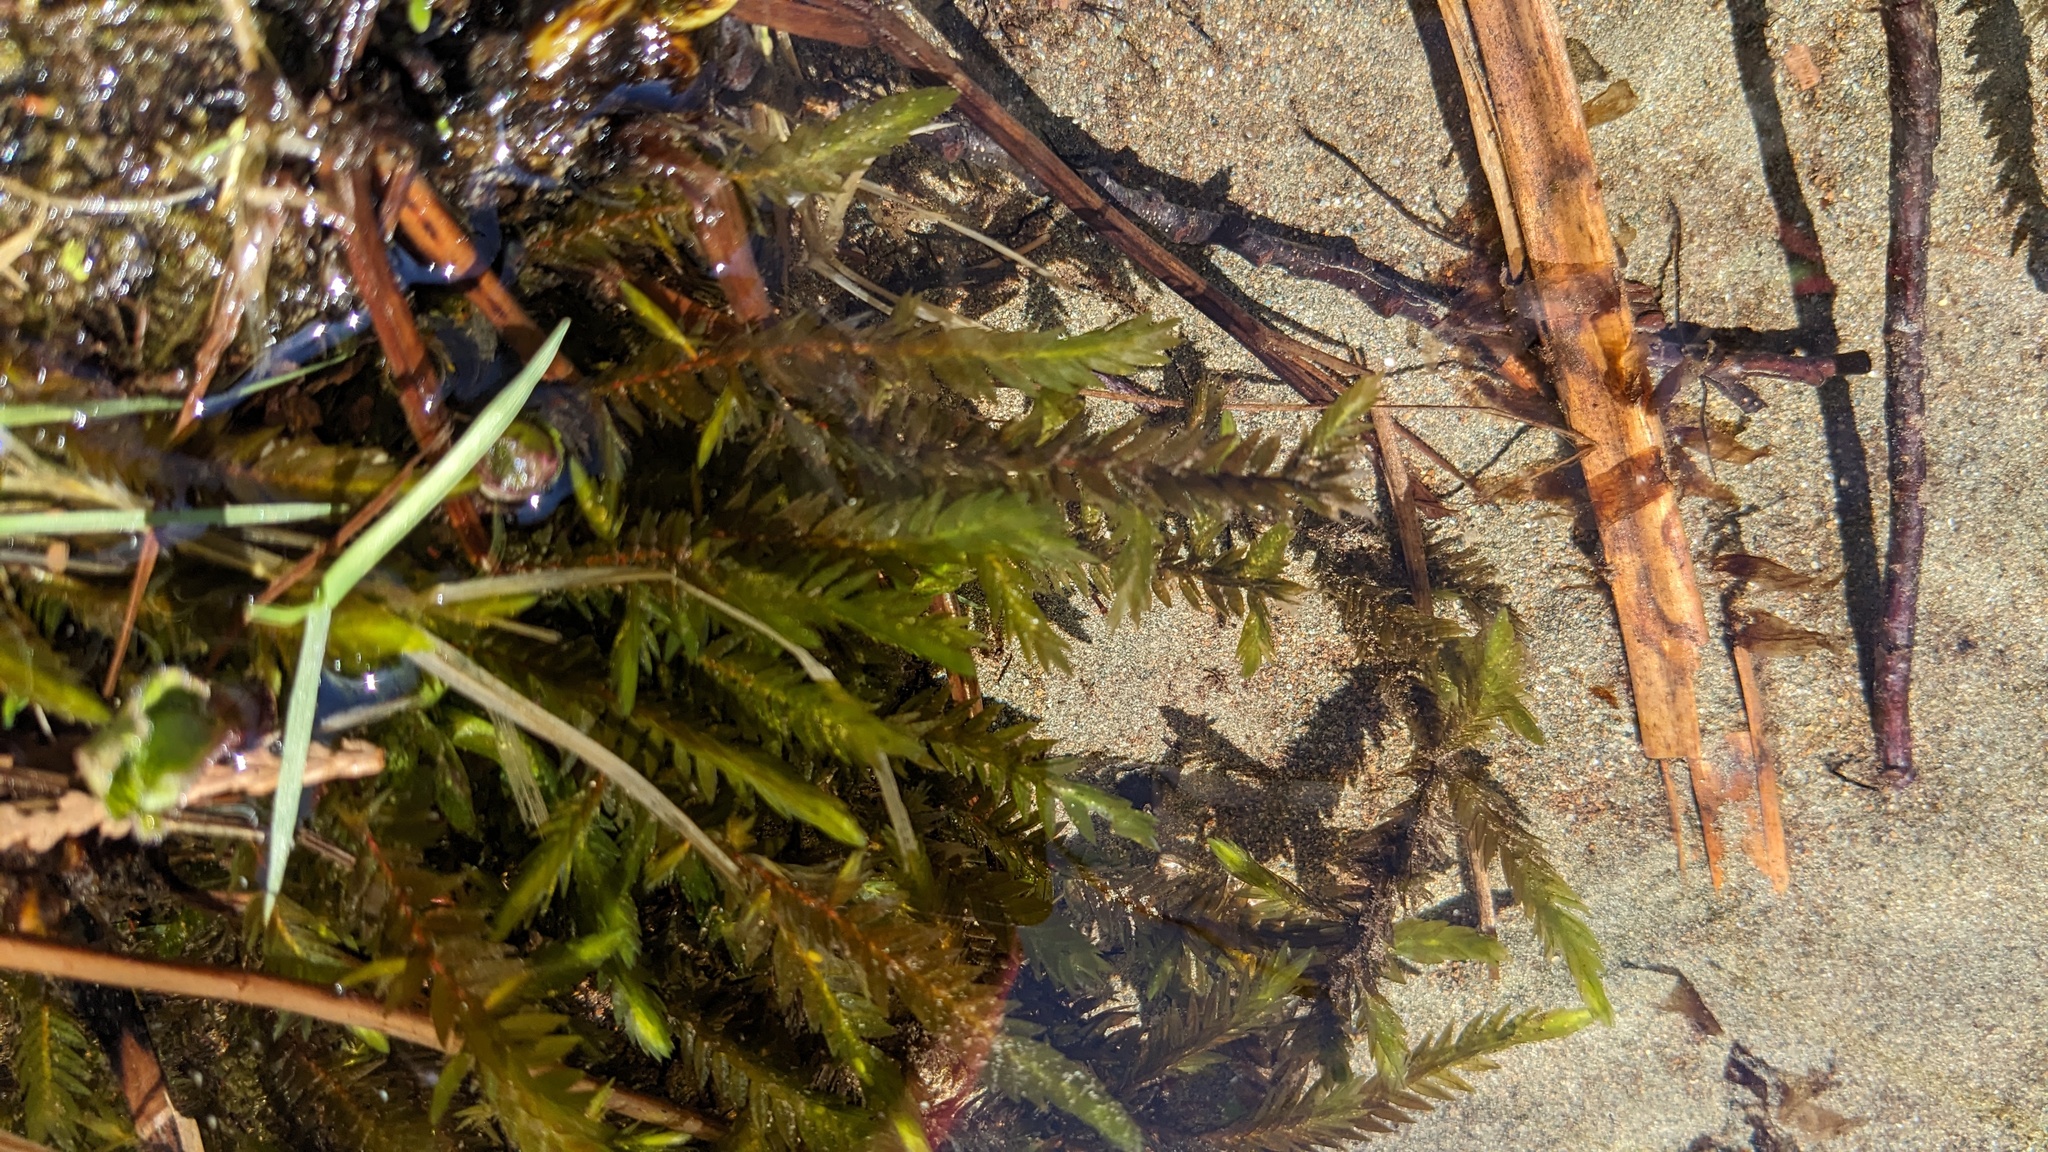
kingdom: Plantae
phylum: Bryophyta
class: Bryopsida
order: Hypnales
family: Fontinalaceae
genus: Fontinalis
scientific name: Fontinalis antipyretica
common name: Greater water-moss
